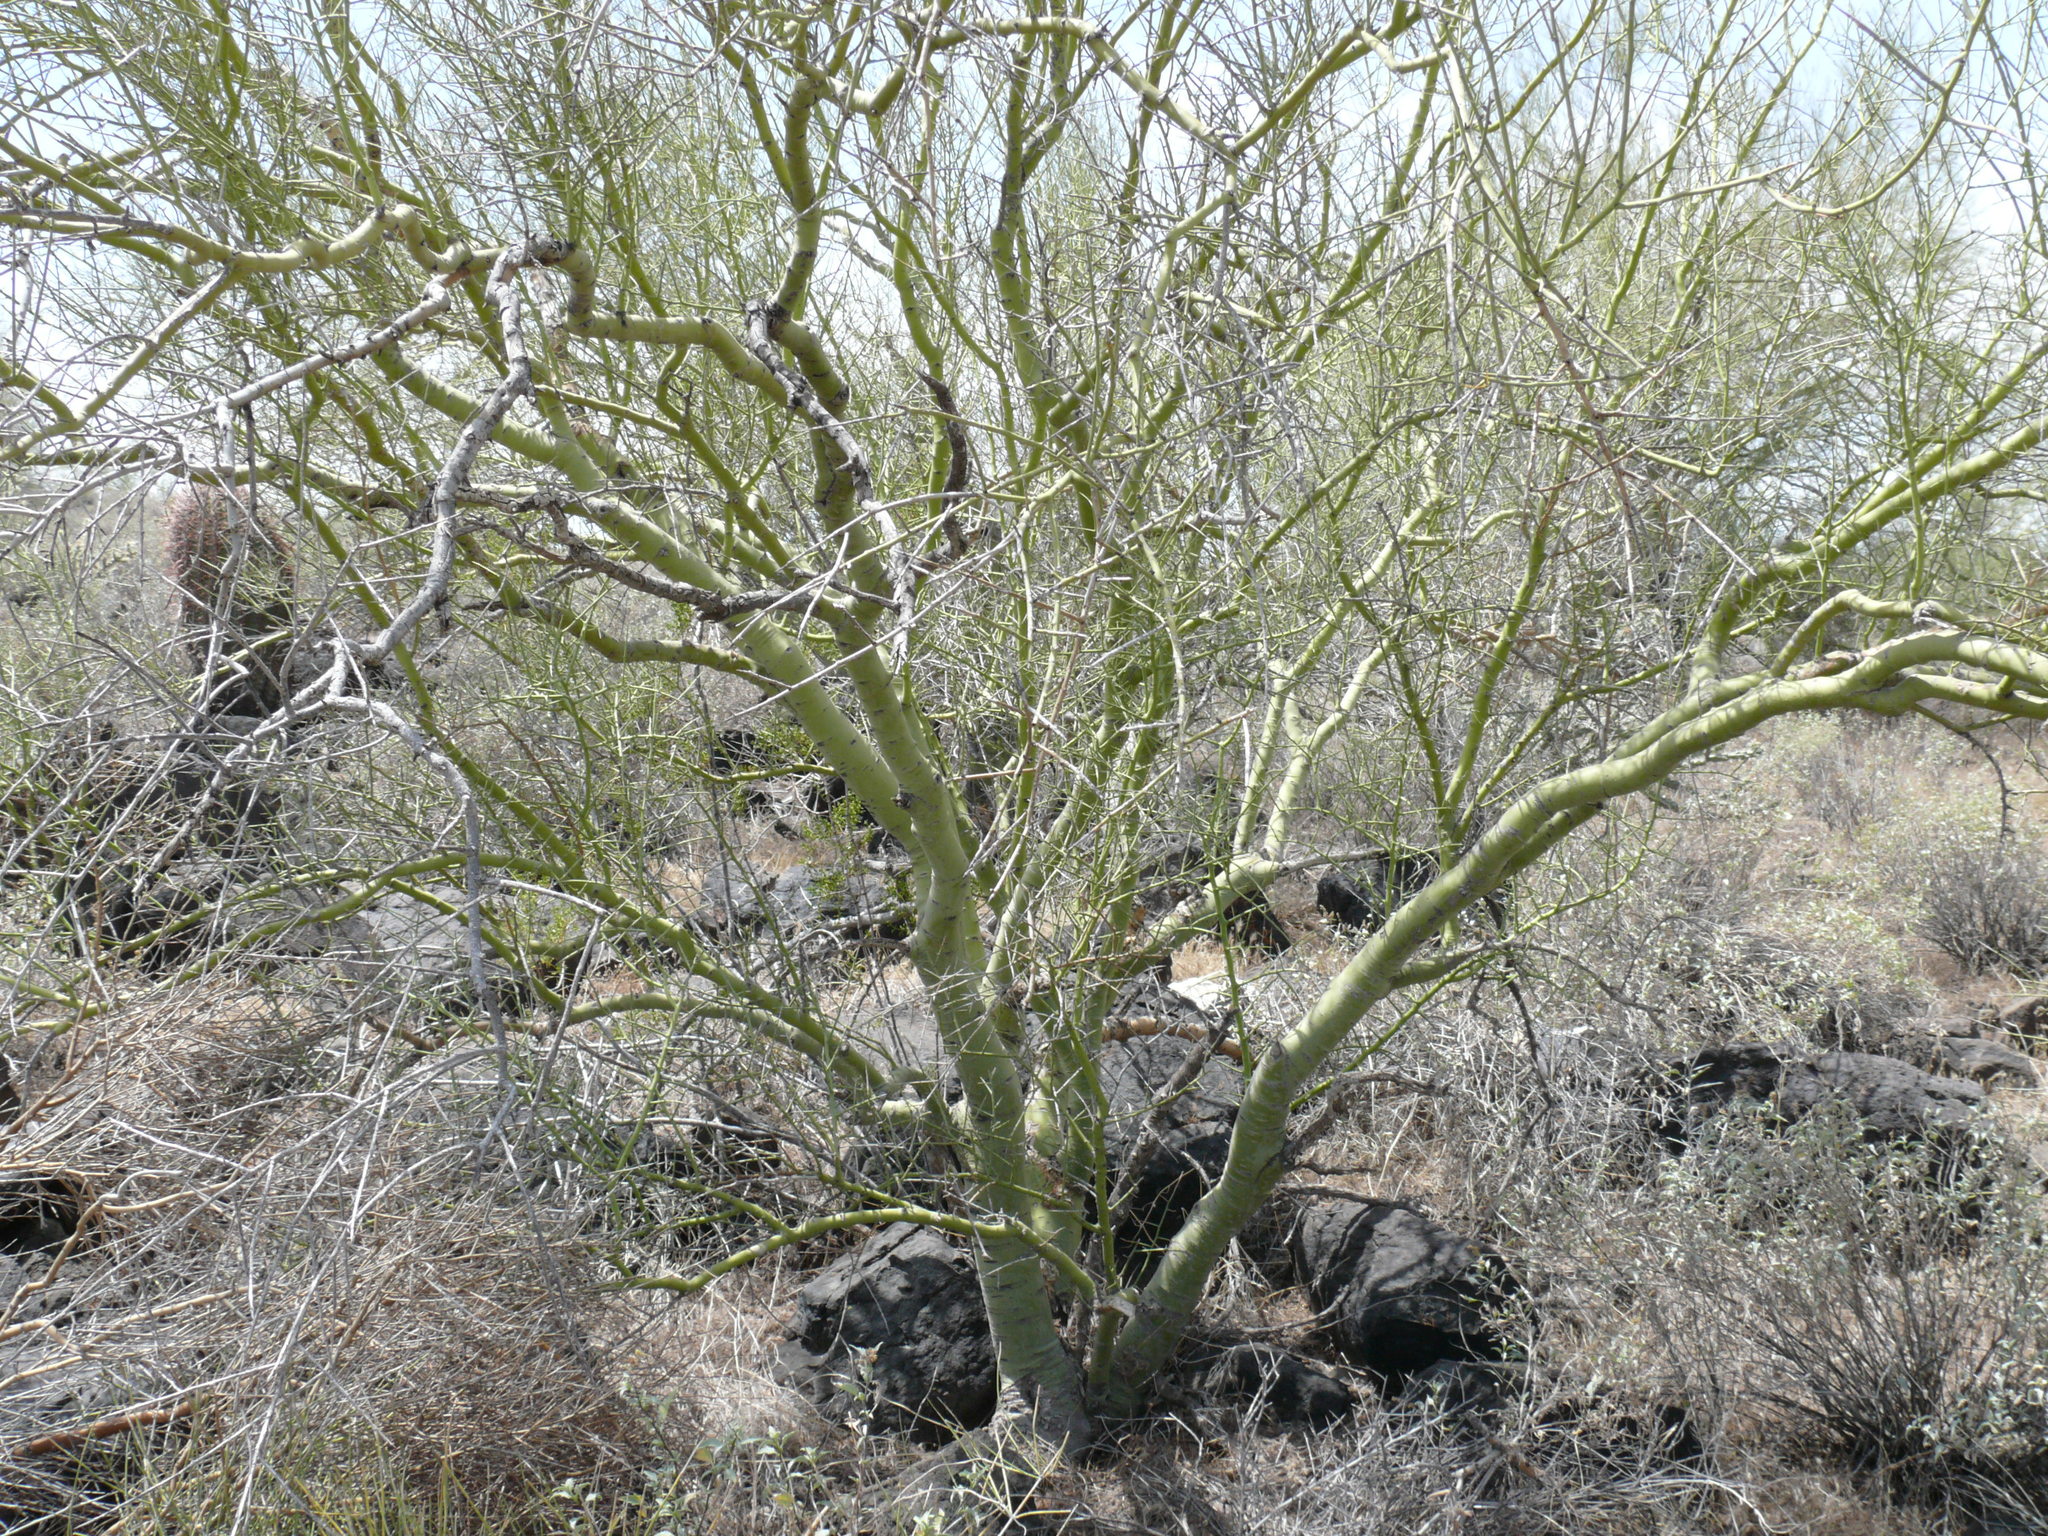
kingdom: Plantae
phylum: Tracheophyta
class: Magnoliopsida
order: Fabales
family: Fabaceae
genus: Parkinsonia
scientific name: Parkinsonia microphylla
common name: Yellow paloverde
